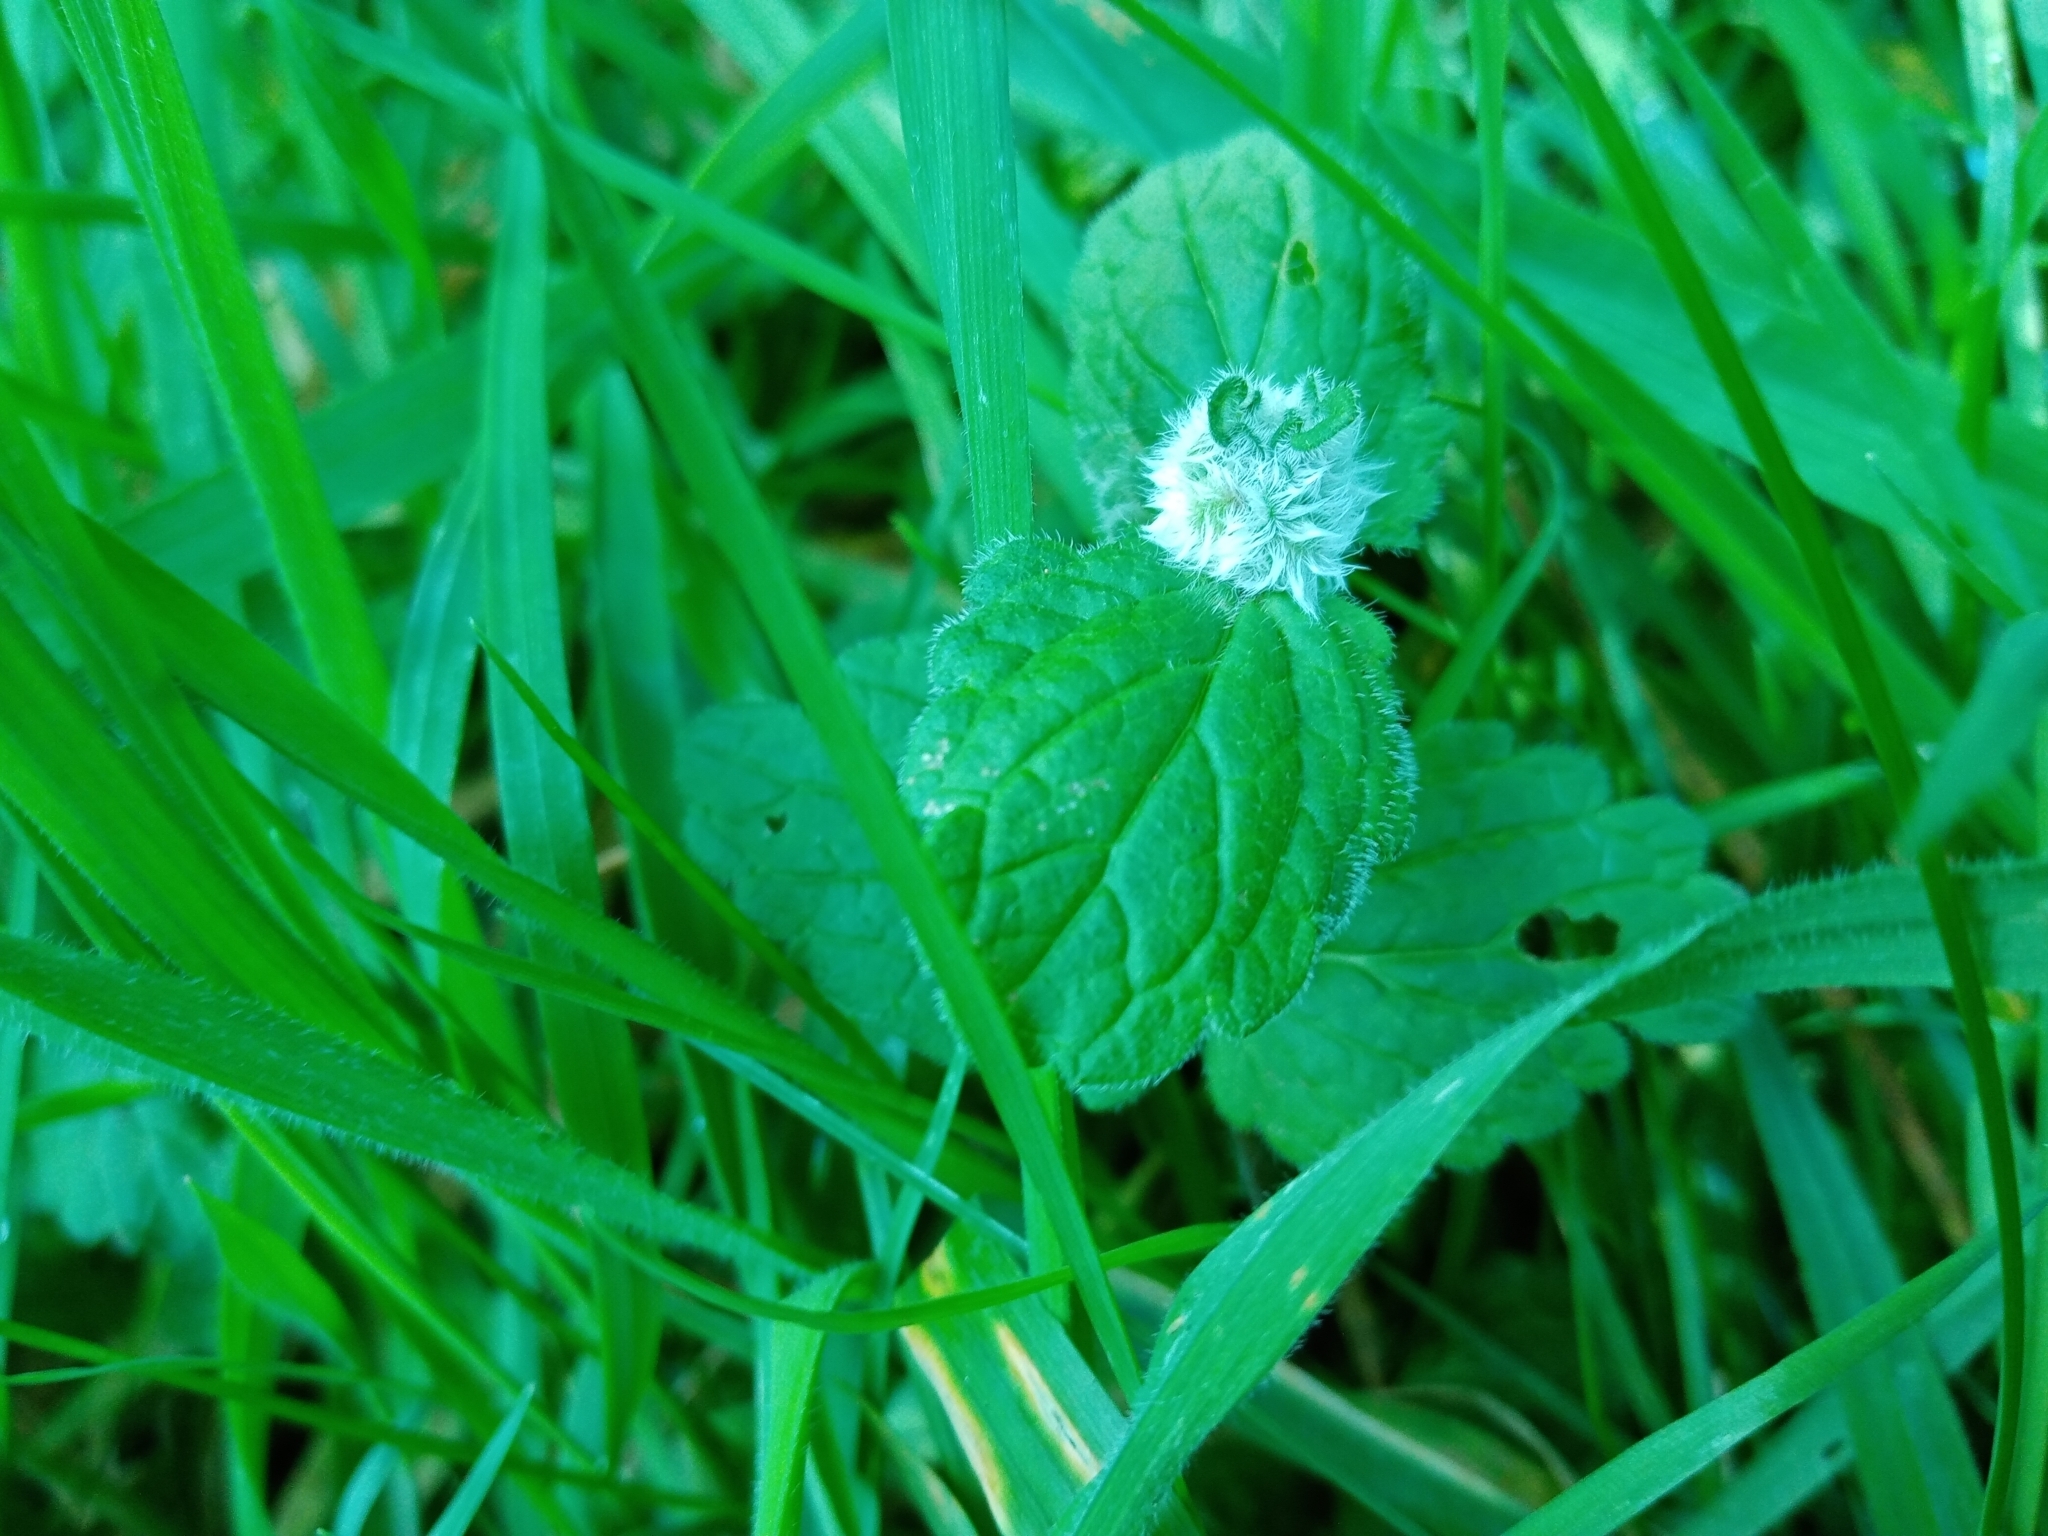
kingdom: Animalia
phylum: Arthropoda
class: Insecta
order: Diptera
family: Cecidomyiidae
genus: Jaapiella
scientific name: Jaapiella veronicae
